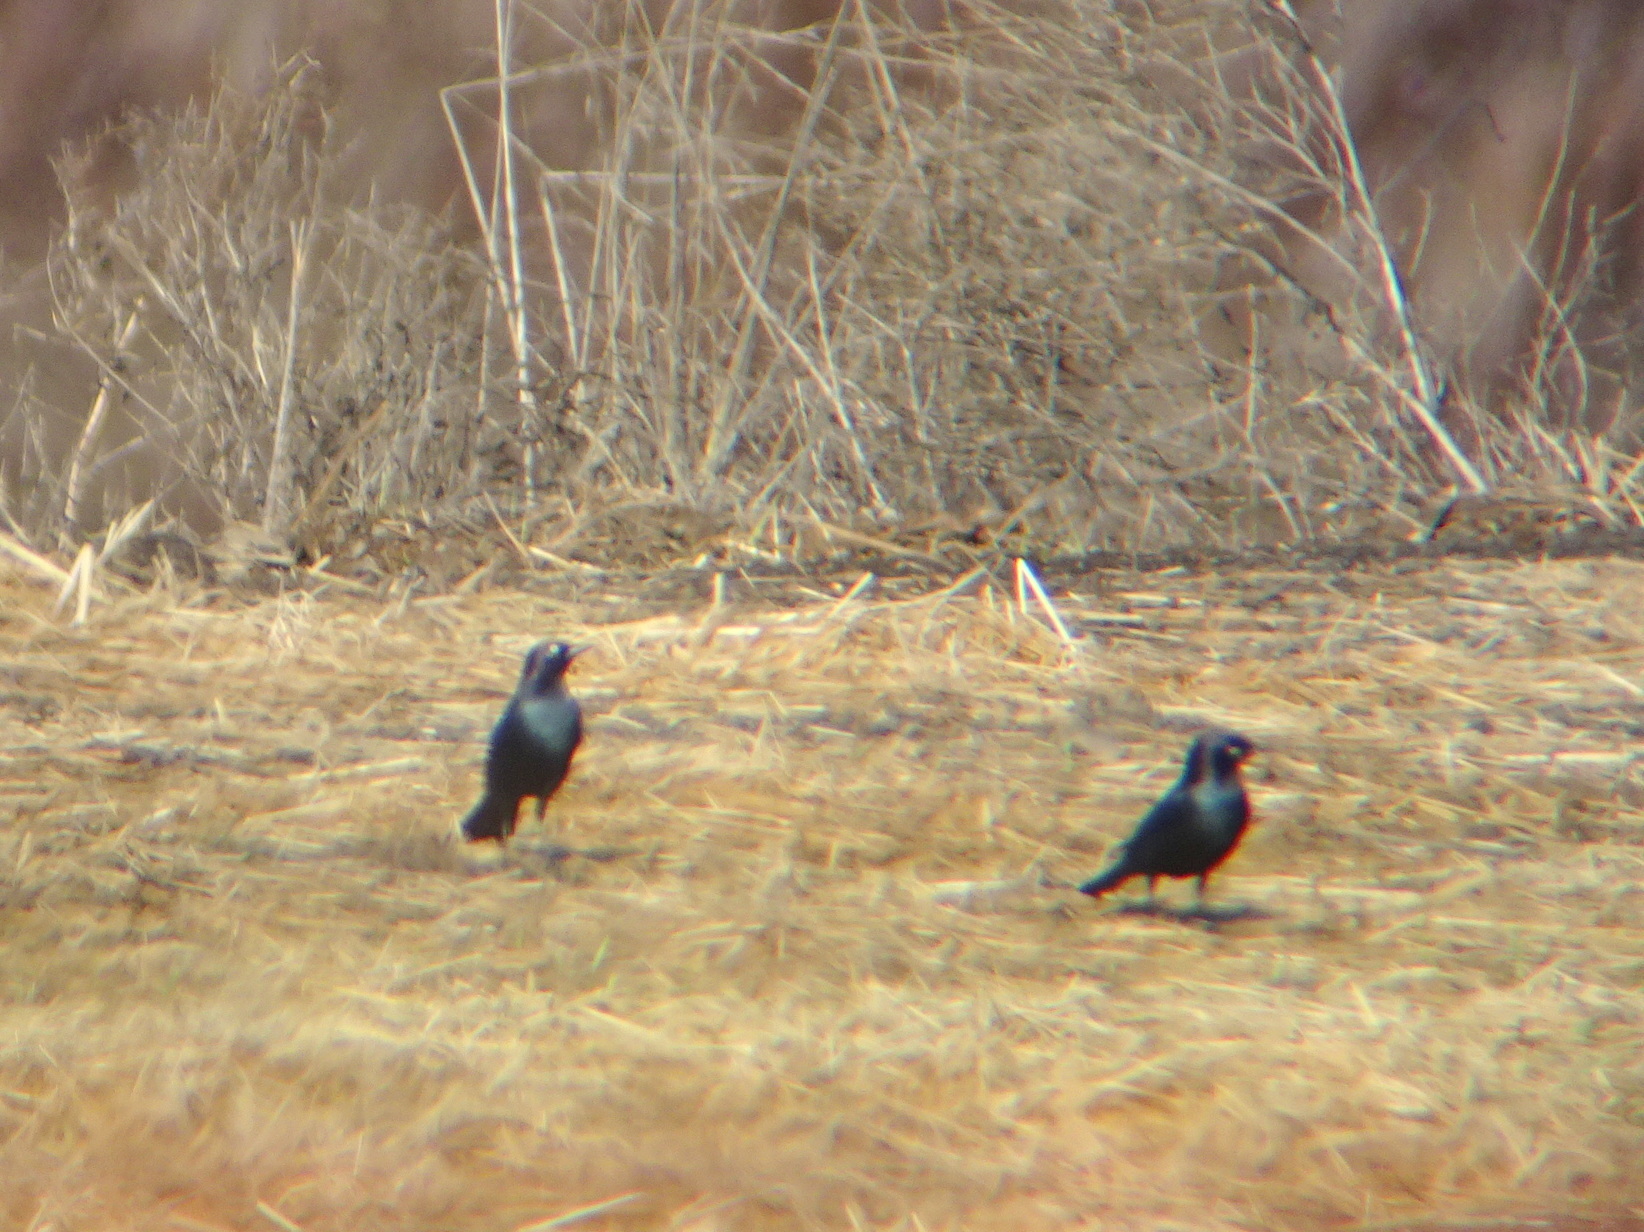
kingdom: Animalia
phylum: Chordata
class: Aves
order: Passeriformes
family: Icteridae
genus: Euphagus
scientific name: Euphagus cyanocephalus
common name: Brewer's blackbird
